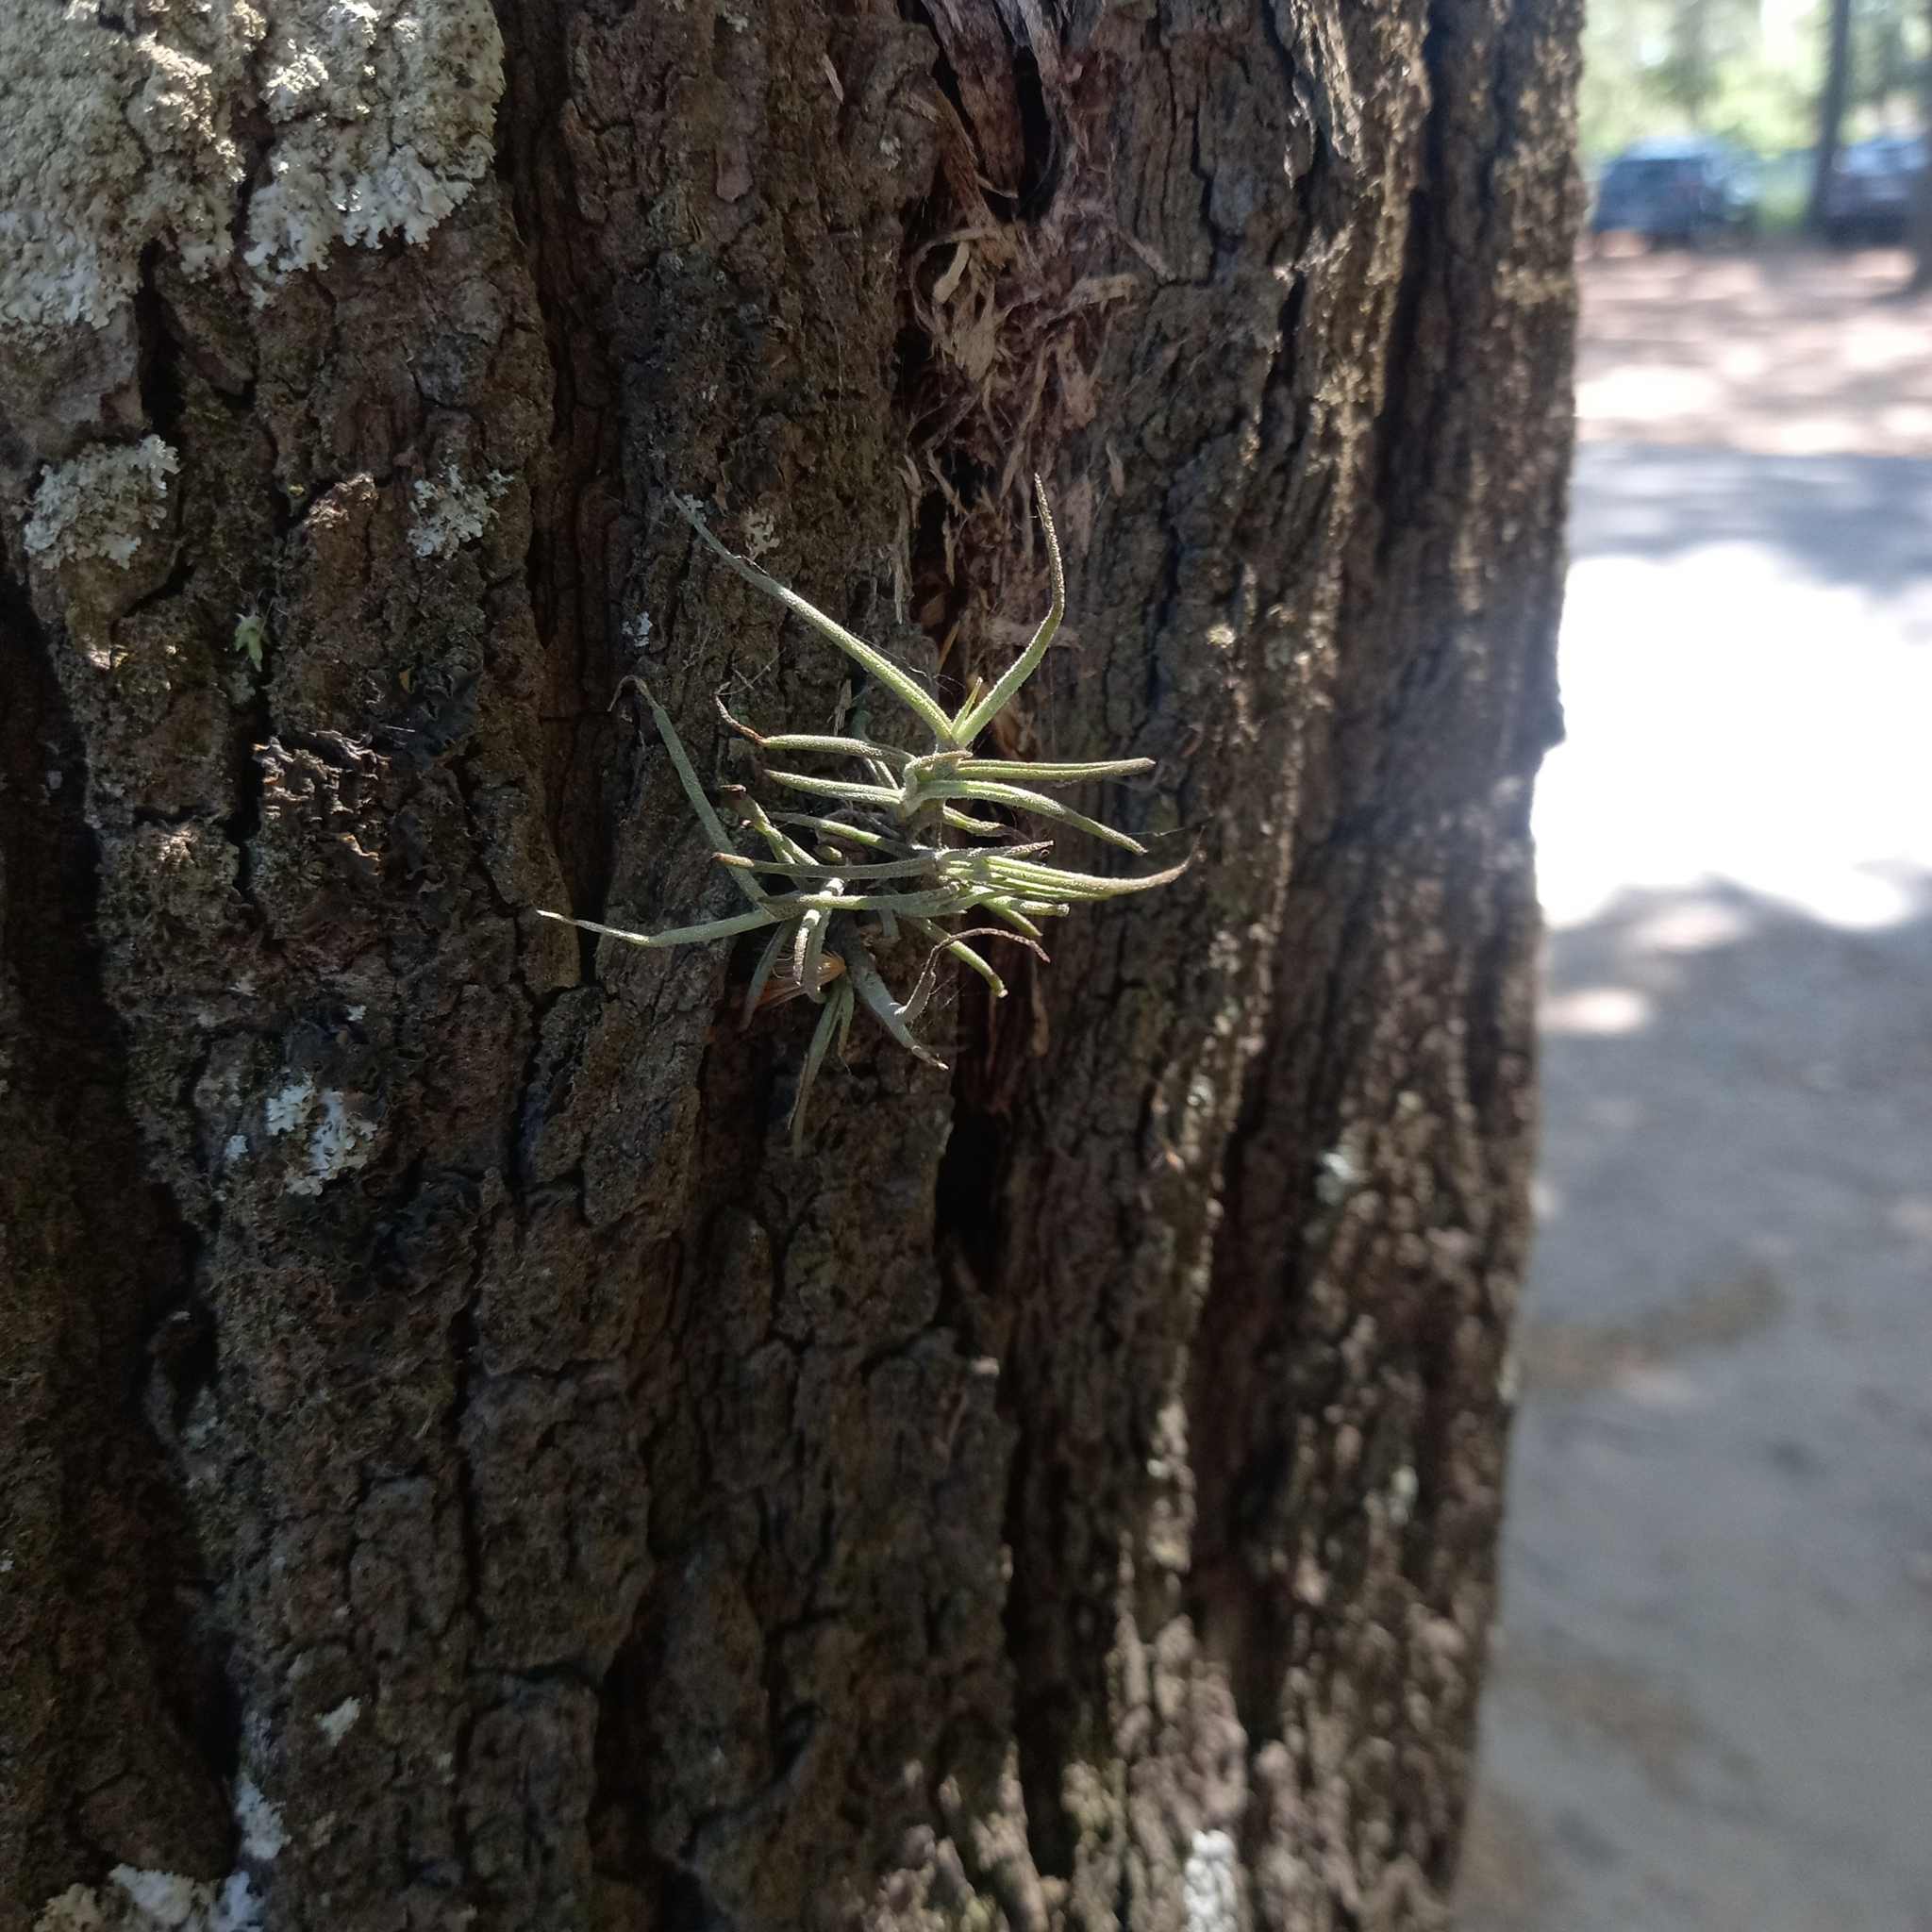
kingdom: Plantae
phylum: Tracheophyta
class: Liliopsida
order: Poales
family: Bromeliaceae
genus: Tillandsia
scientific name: Tillandsia recurvata
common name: Small ballmoss
